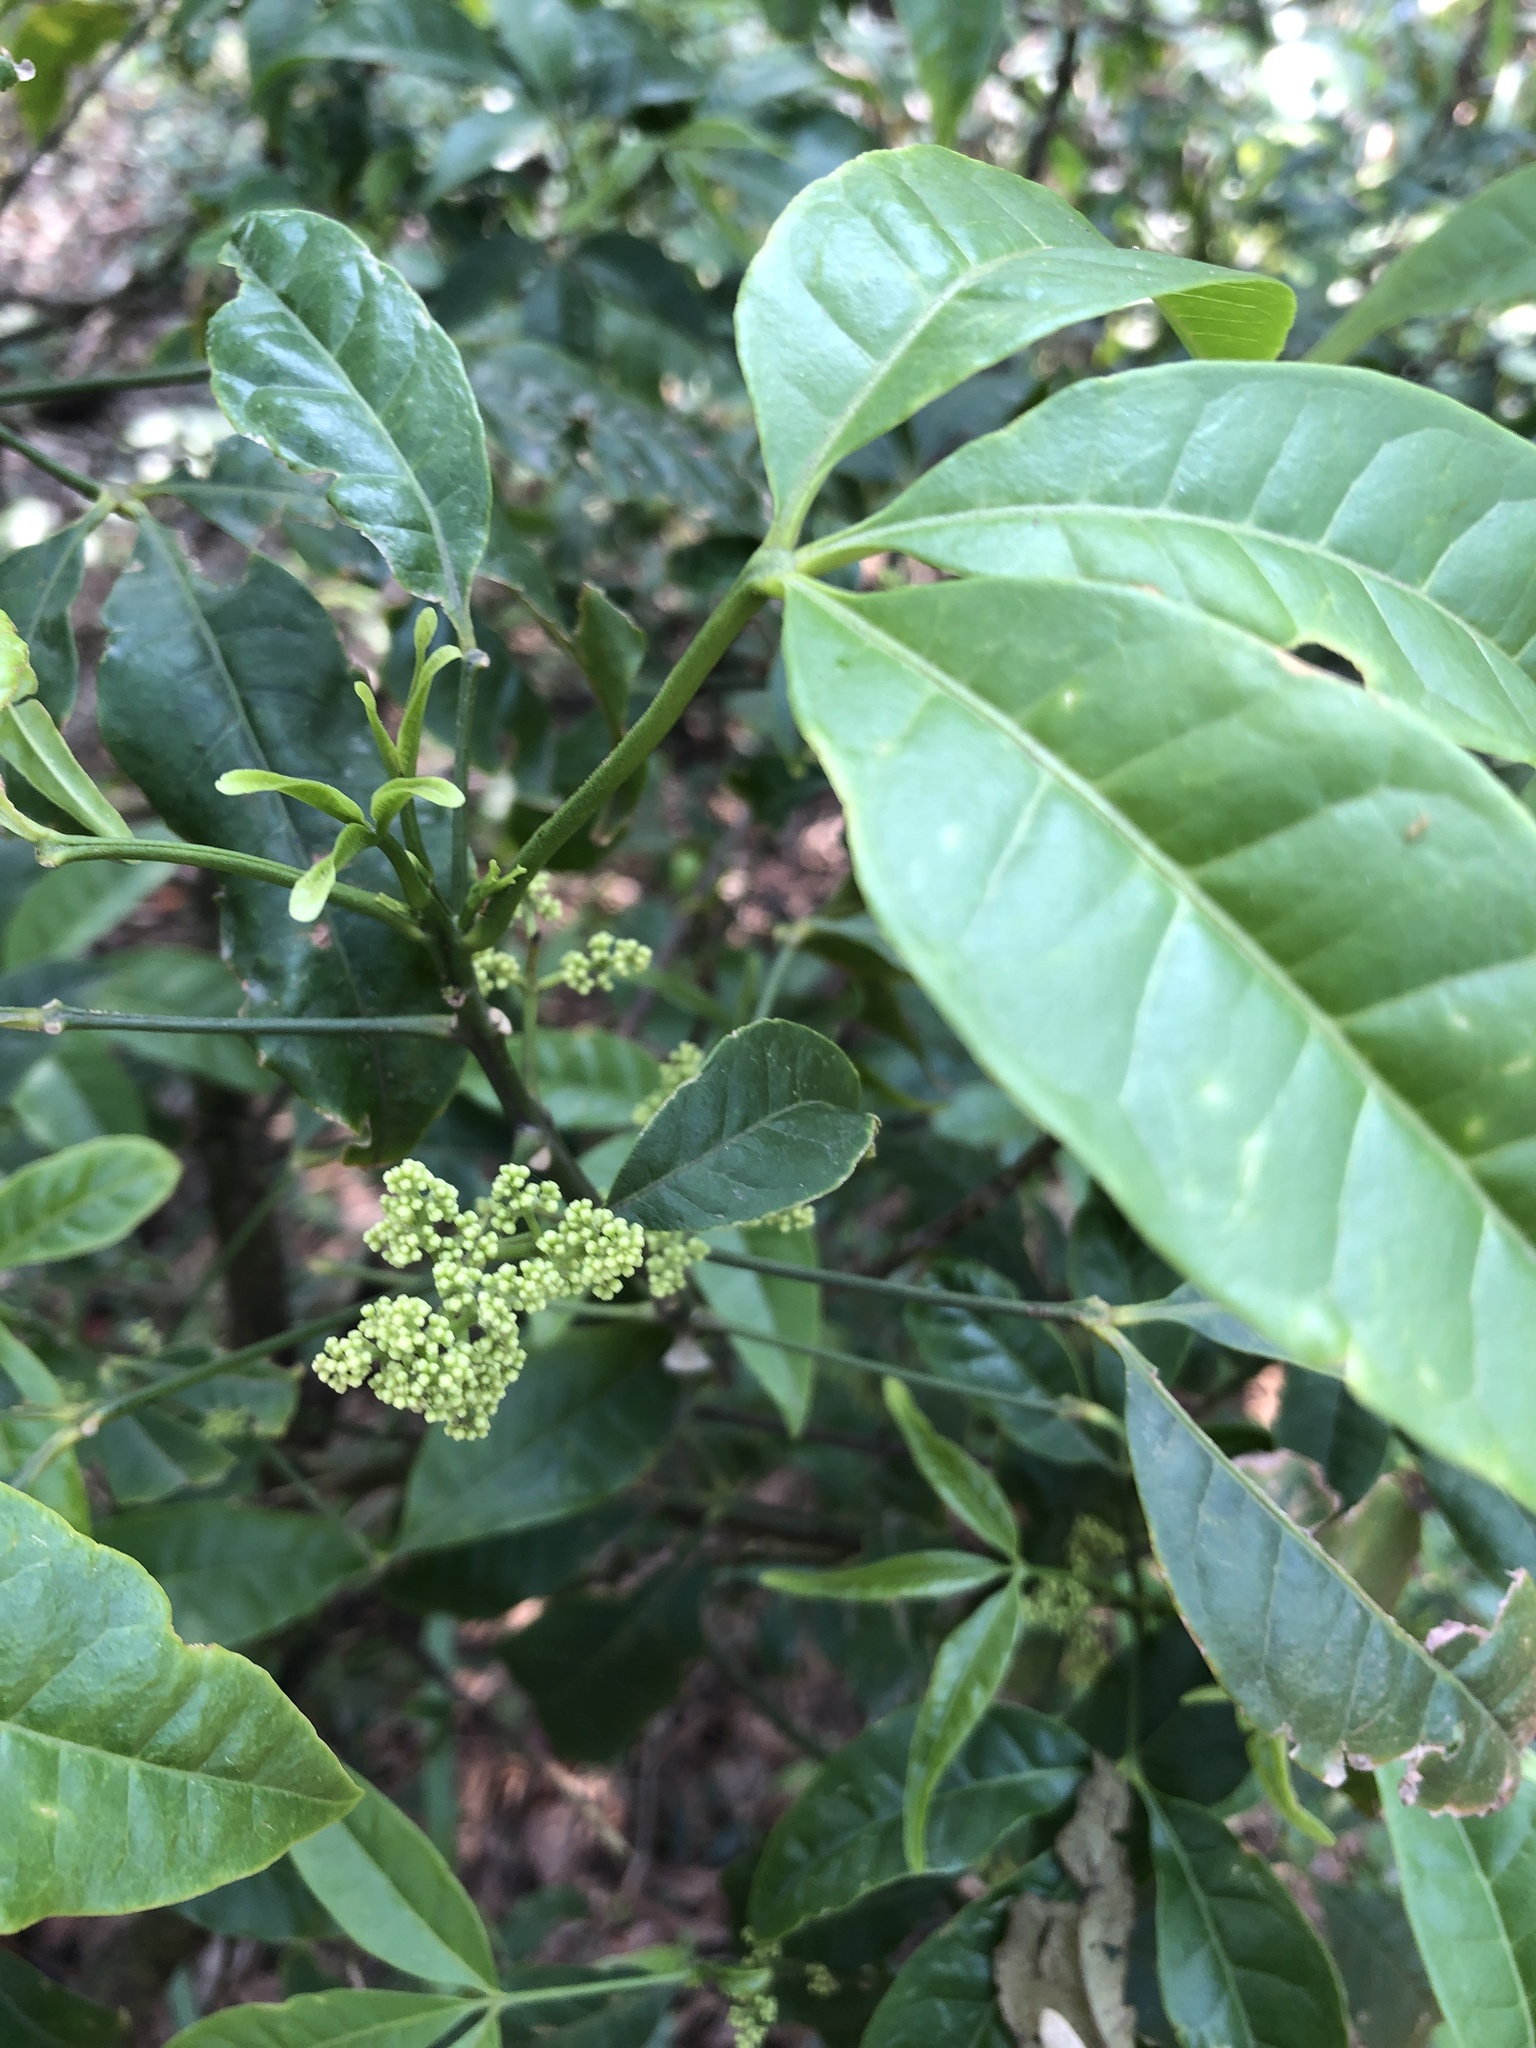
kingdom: Plantae
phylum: Tracheophyta
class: Magnoliopsida
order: Sapindales
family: Rutaceae
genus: Melicope
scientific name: Melicope pteleifolia
